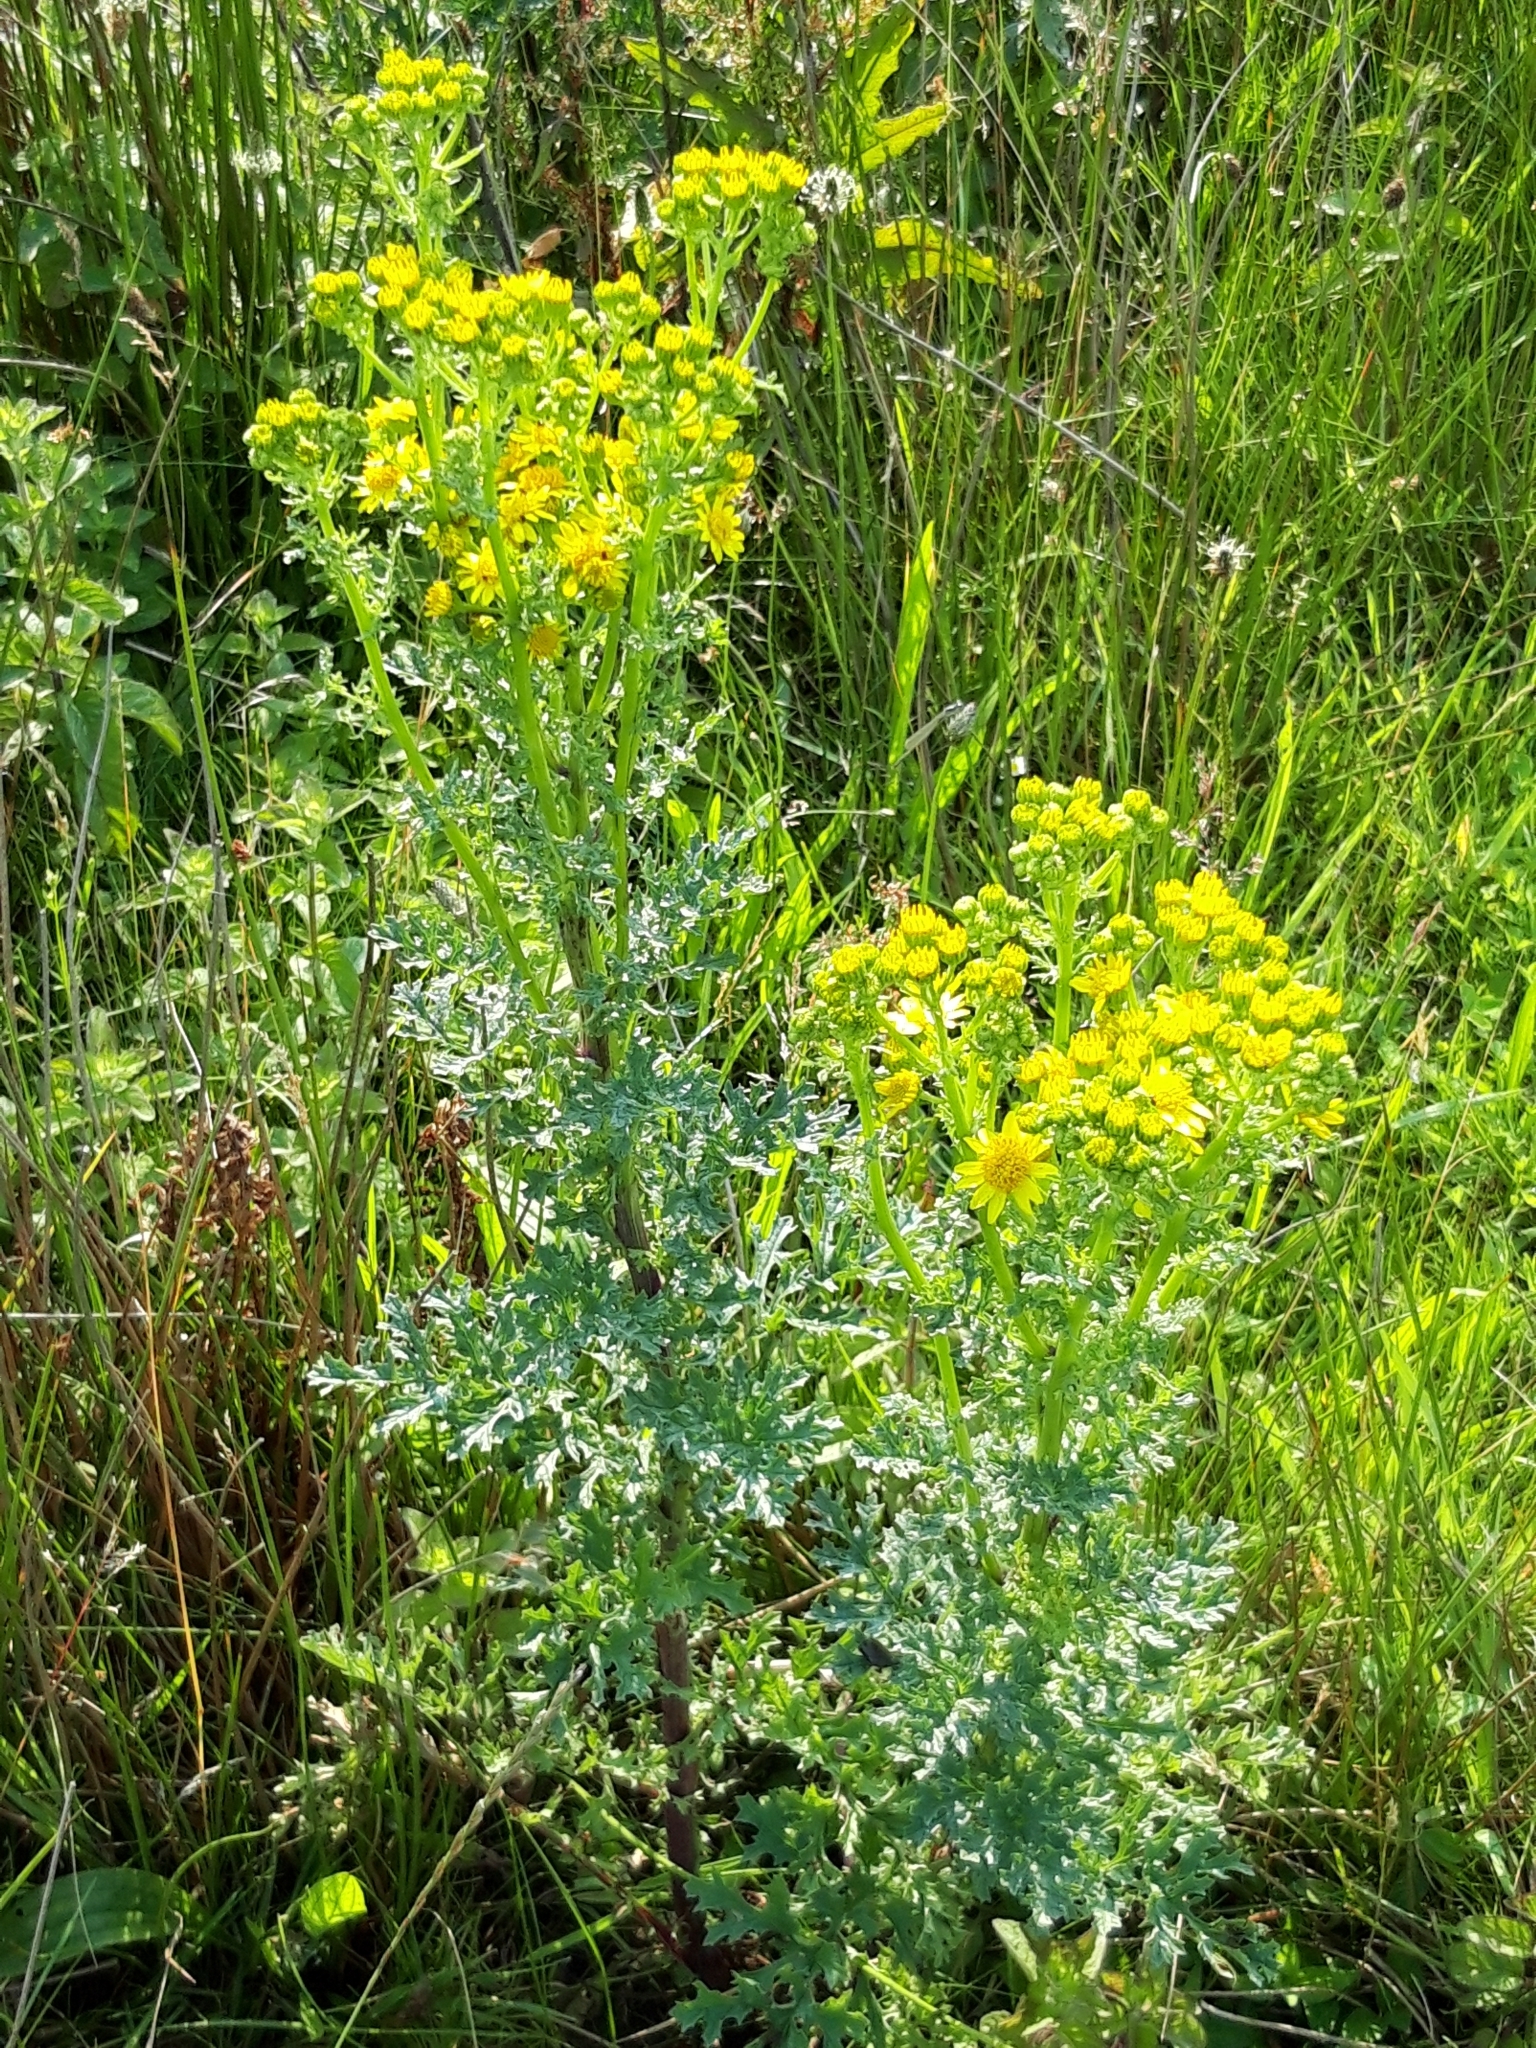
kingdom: Plantae
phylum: Tracheophyta
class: Magnoliopsida
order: Asterales
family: Asteraceae
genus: Jacobaea
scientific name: Jacobaea vulgaris
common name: Stinking willie
